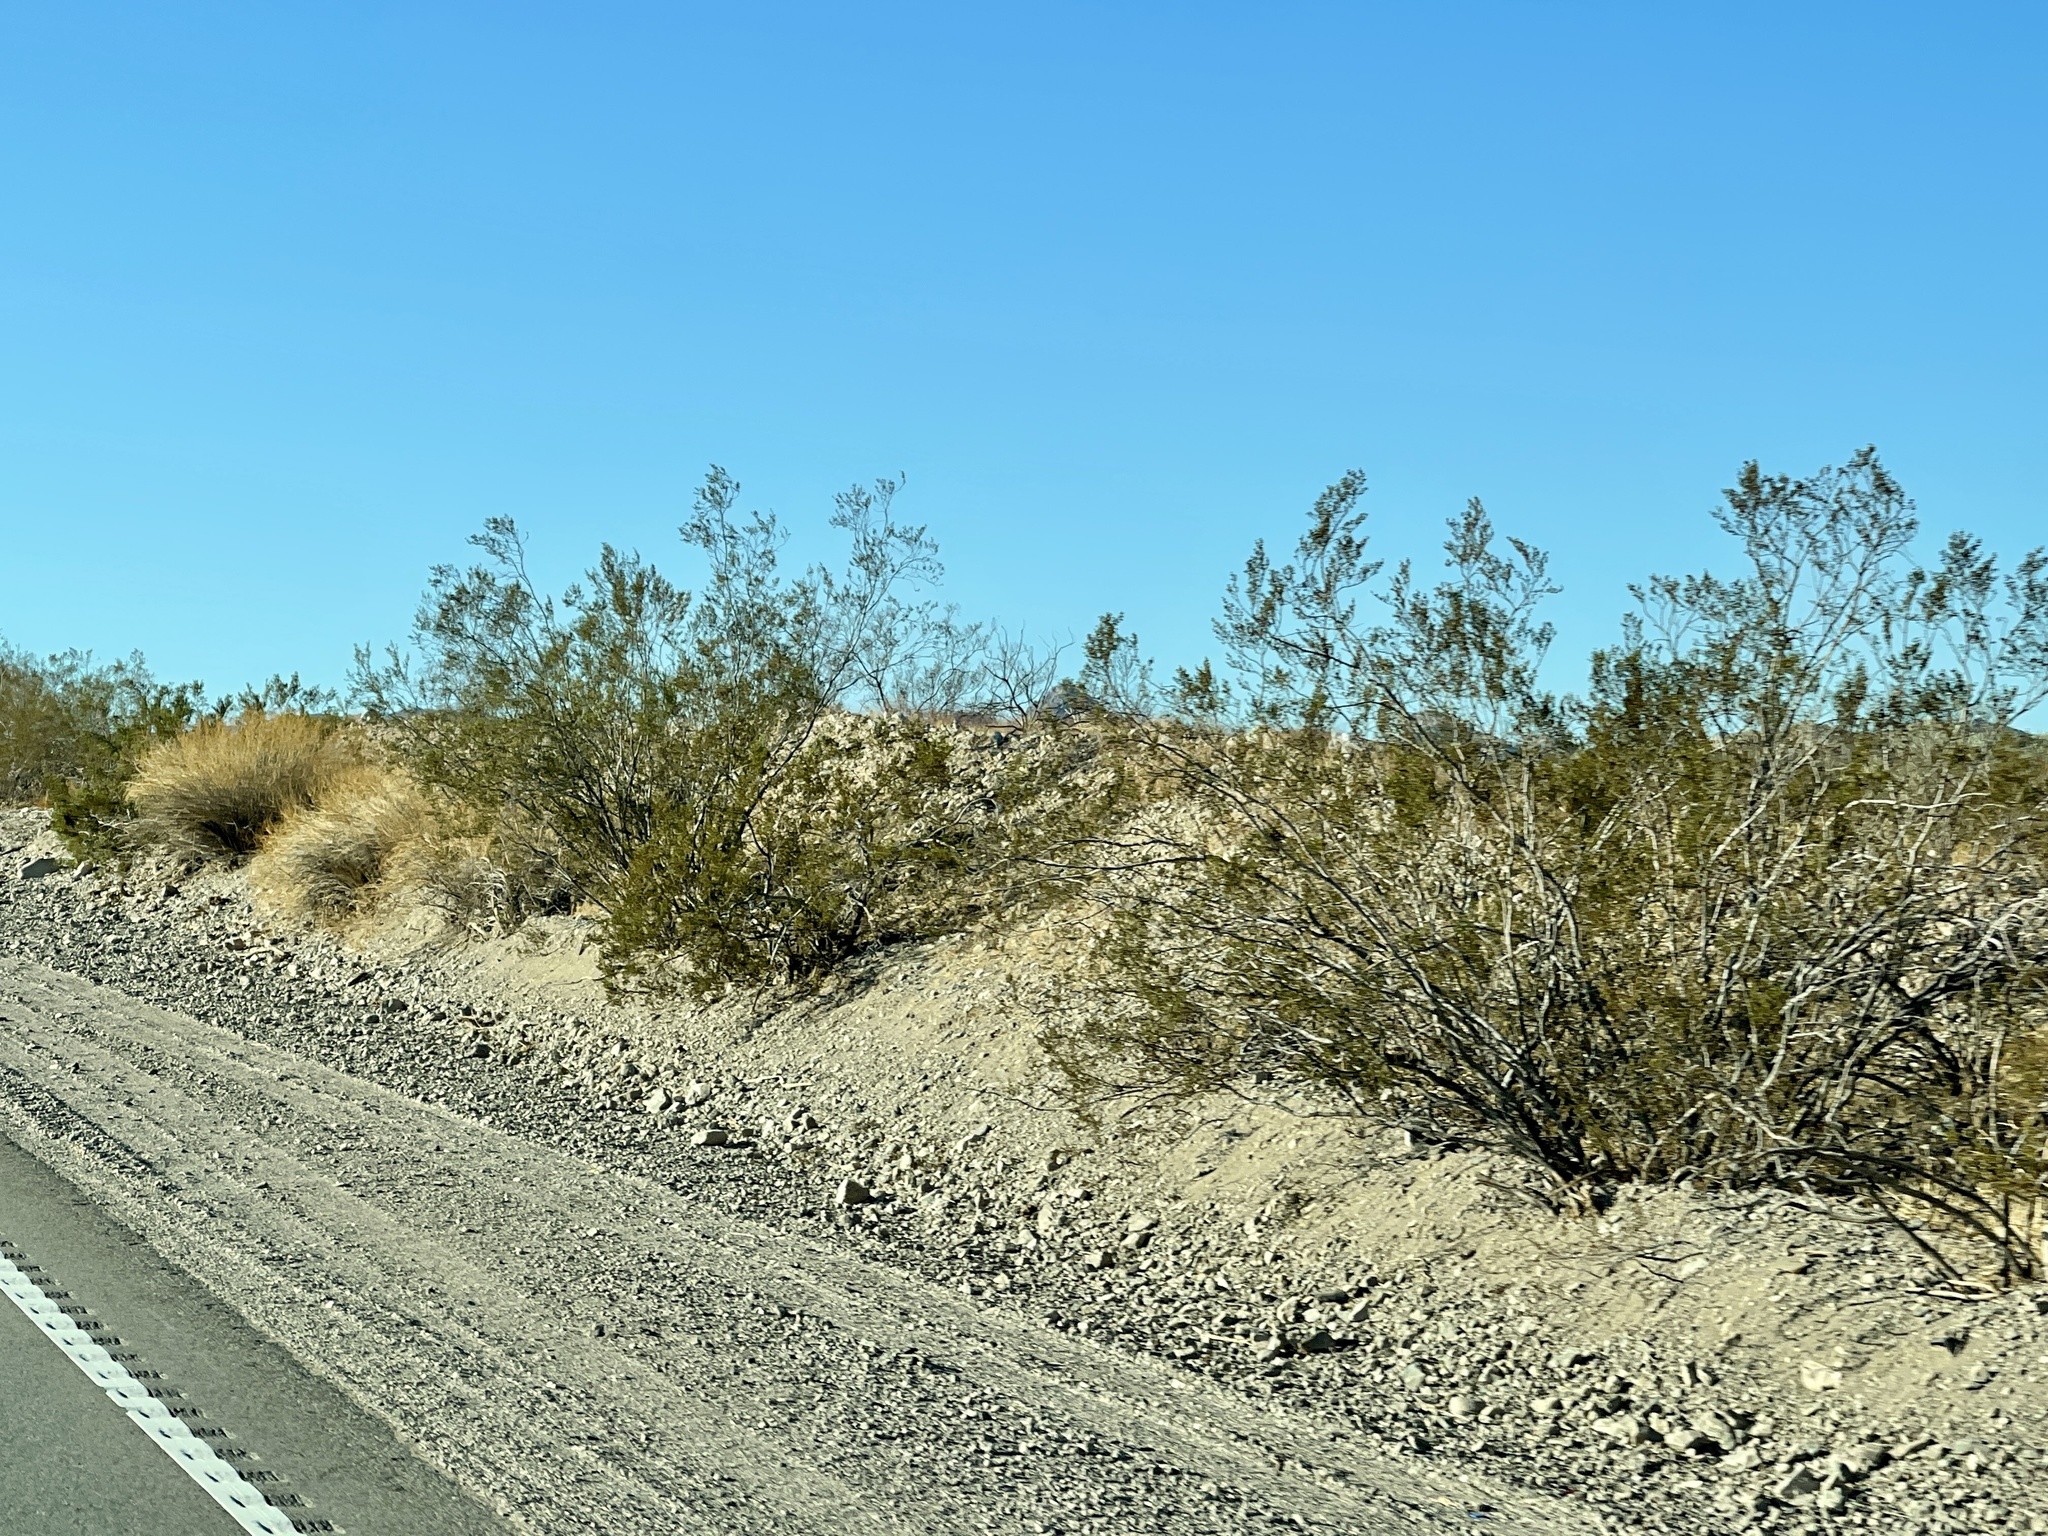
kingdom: Plantae
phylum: Tracheophyta
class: Magnoliopsida
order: Zygophyllales
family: Zygophyllaceae
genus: Larrea
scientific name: Larrea tridentata
